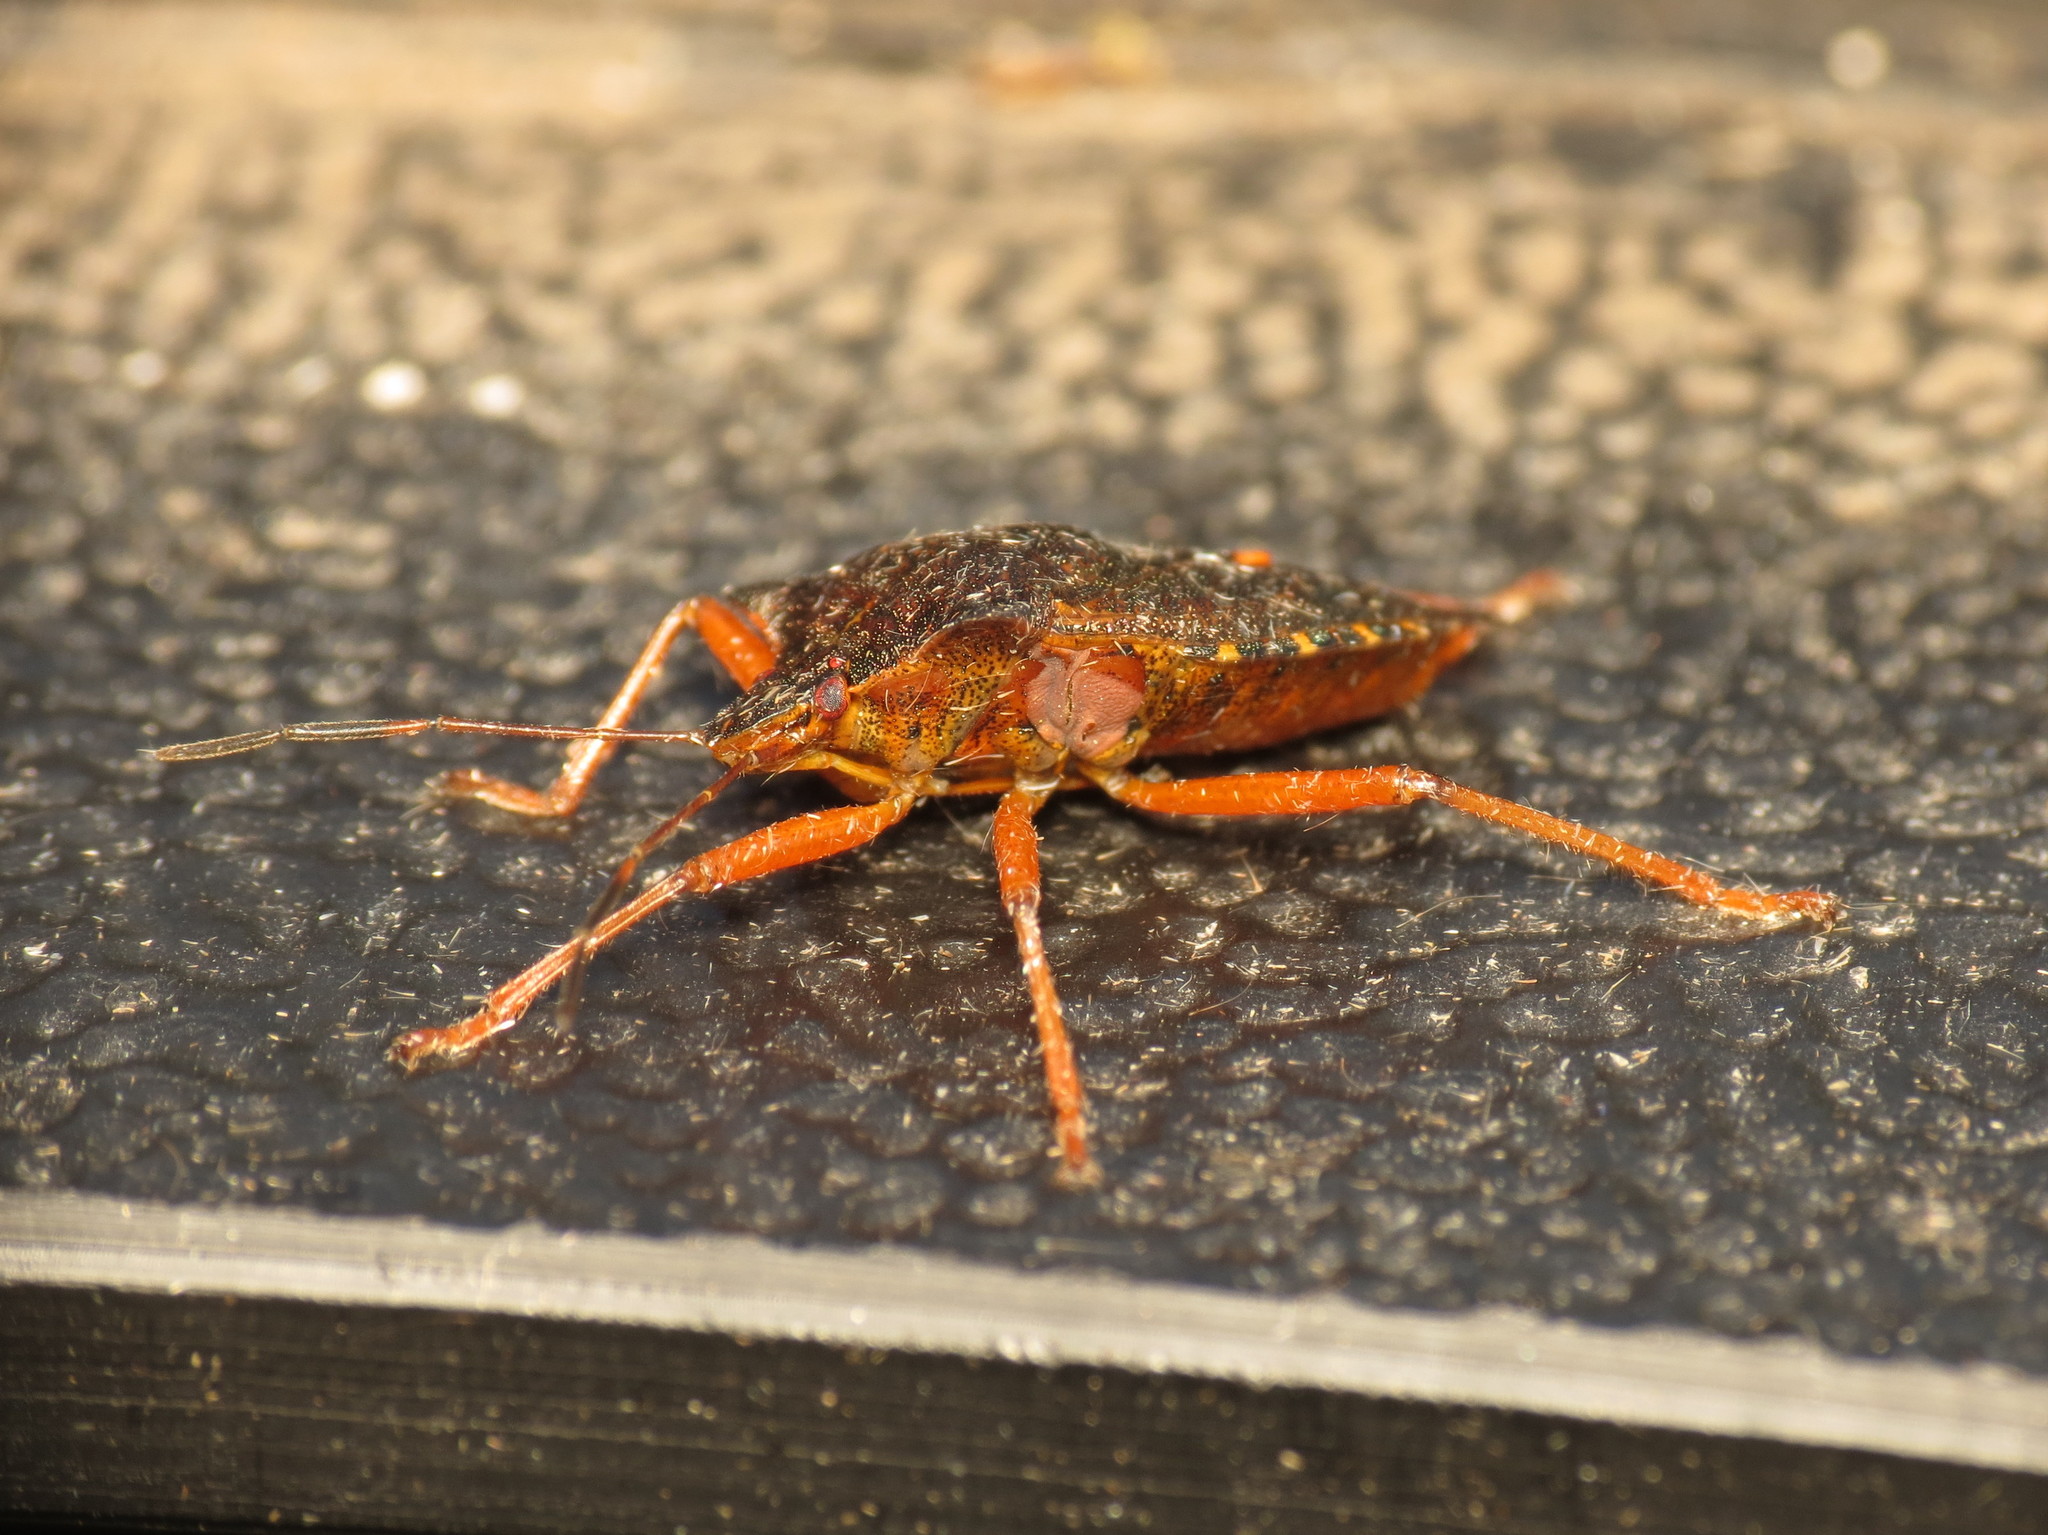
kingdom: Animalia
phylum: Arthropoda
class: Insecta
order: Hemiptera
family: Pentatomidae
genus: Pentatoma
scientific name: Pentatoma rufipes
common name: Forest bug
